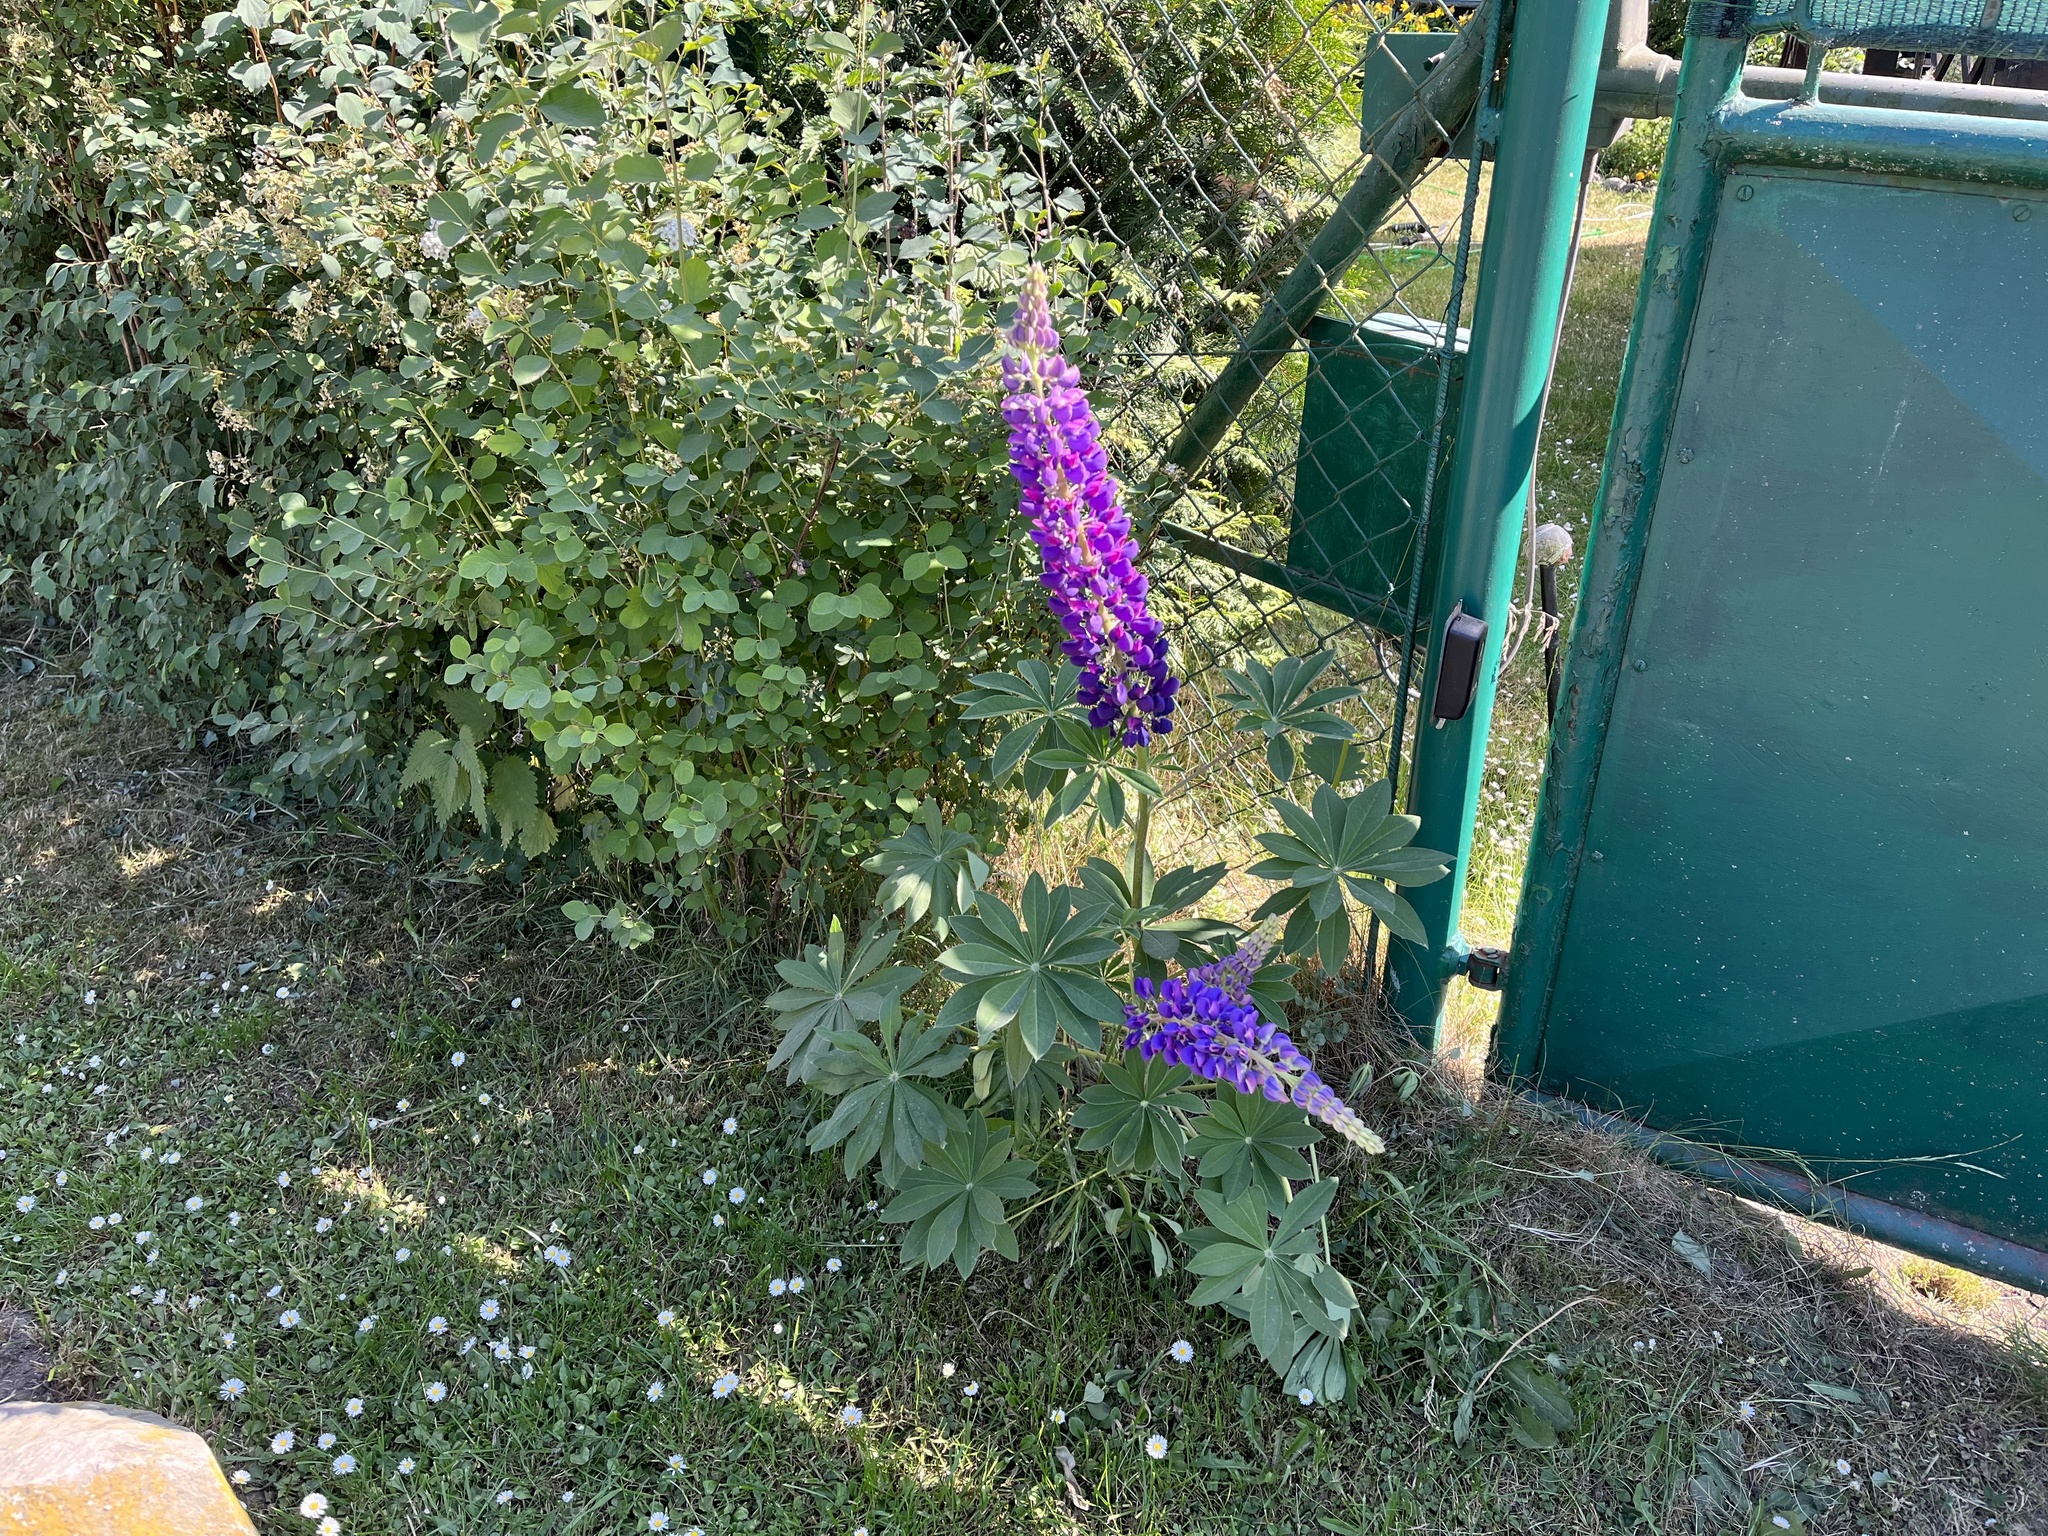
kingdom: Plantae
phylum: Tracheophyta
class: Magnoliopsida
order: Fabales
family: Fabaceae
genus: Lupinus
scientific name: Lupinus polyphyllus
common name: Garden lupin
